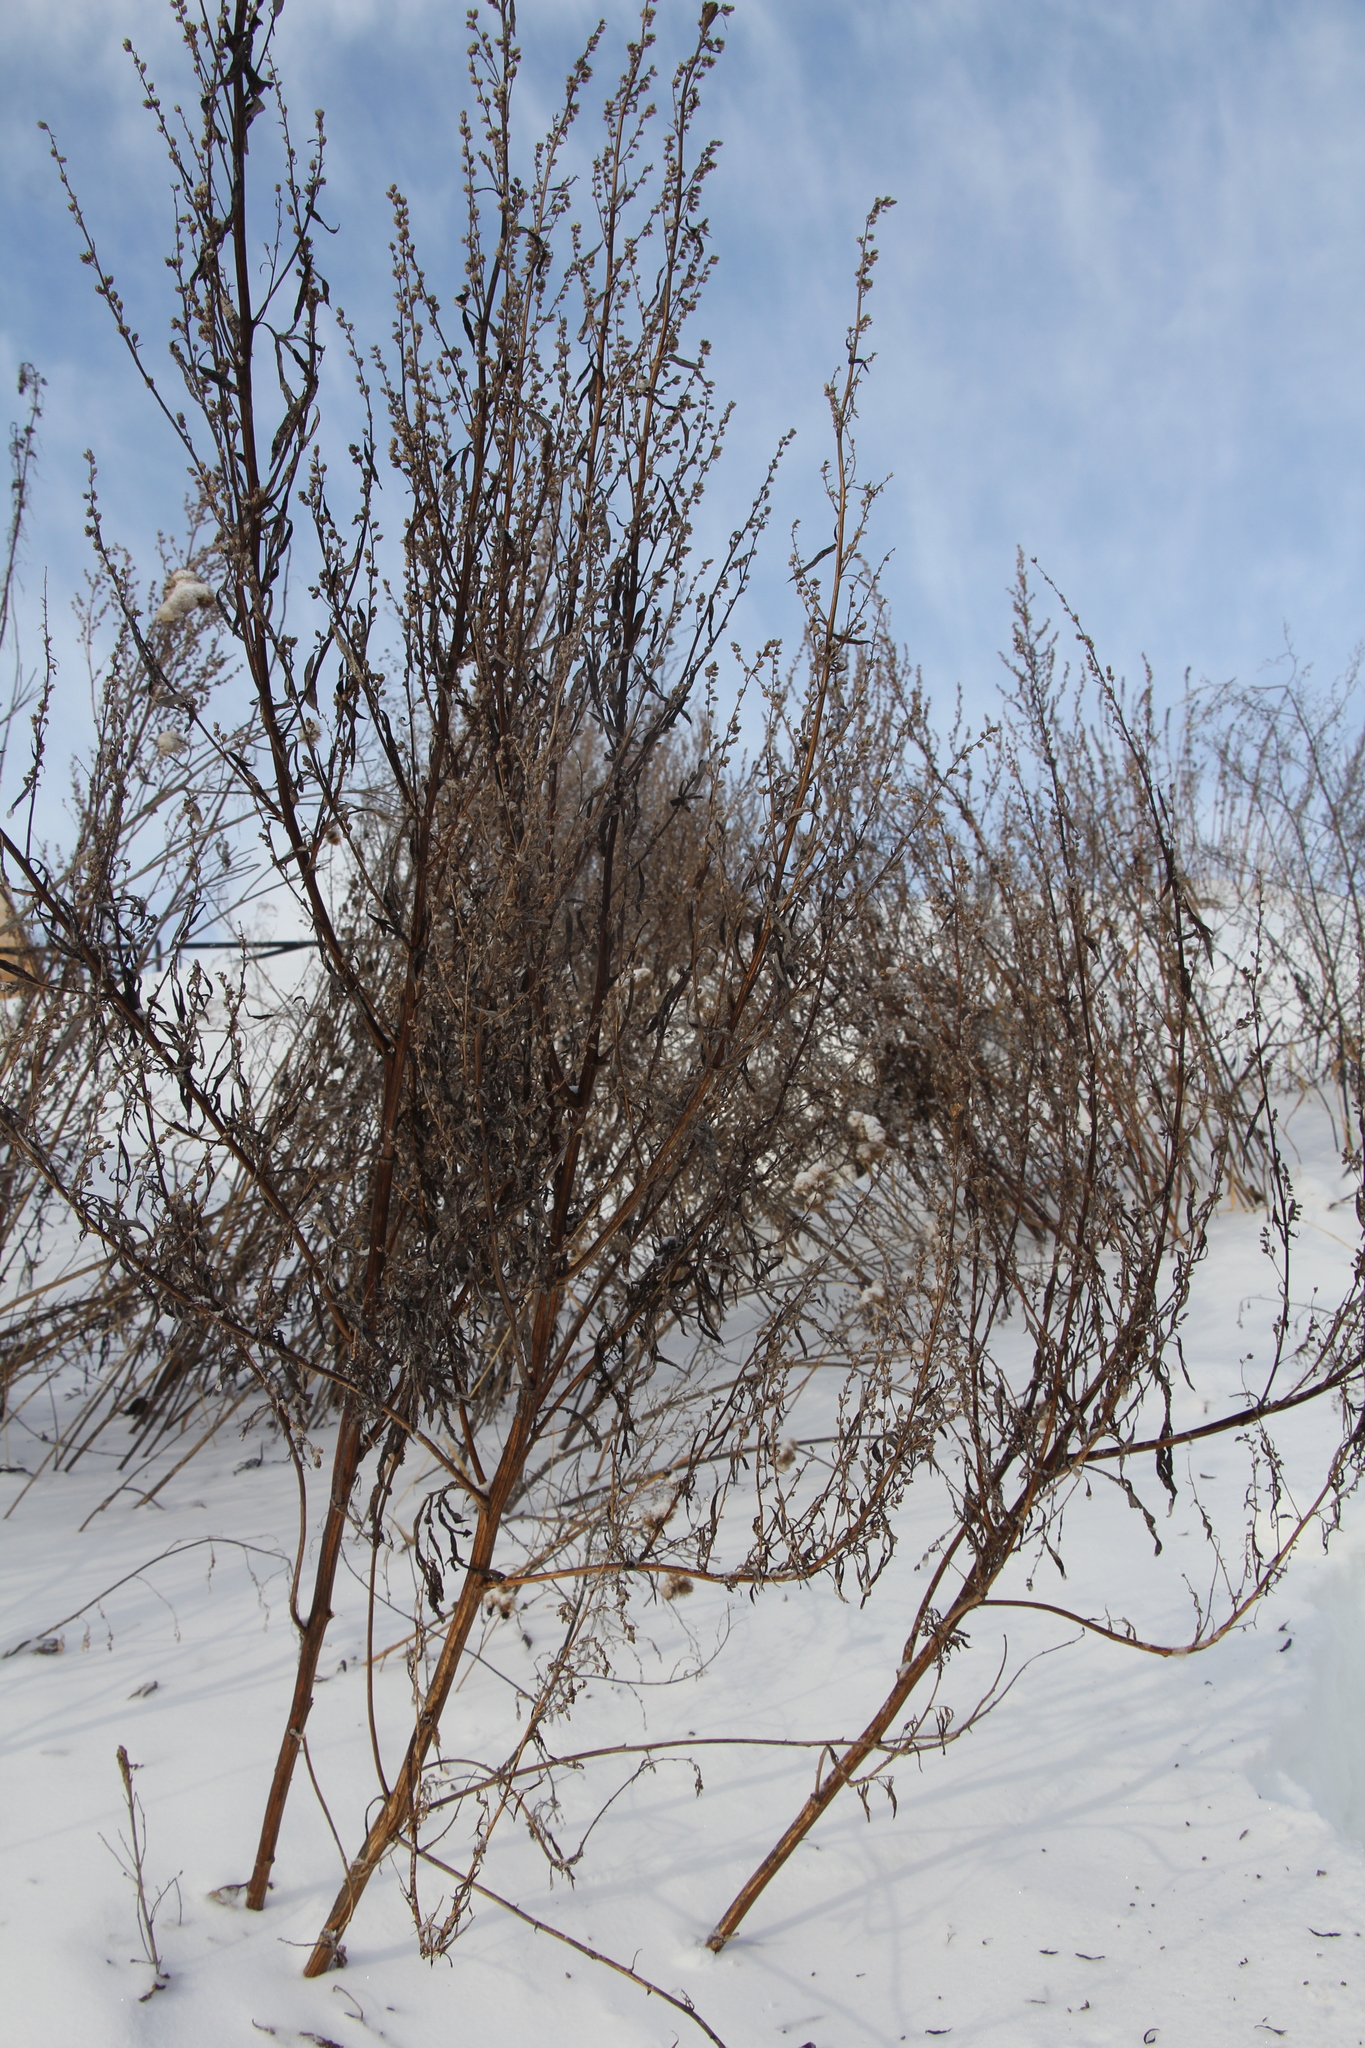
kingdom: Plantae
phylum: Tracheophyta
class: Magnoliopsida
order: Asterales
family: Asteraceae
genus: Artemisia
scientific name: Artemisia vulgaris
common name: Mugwort
